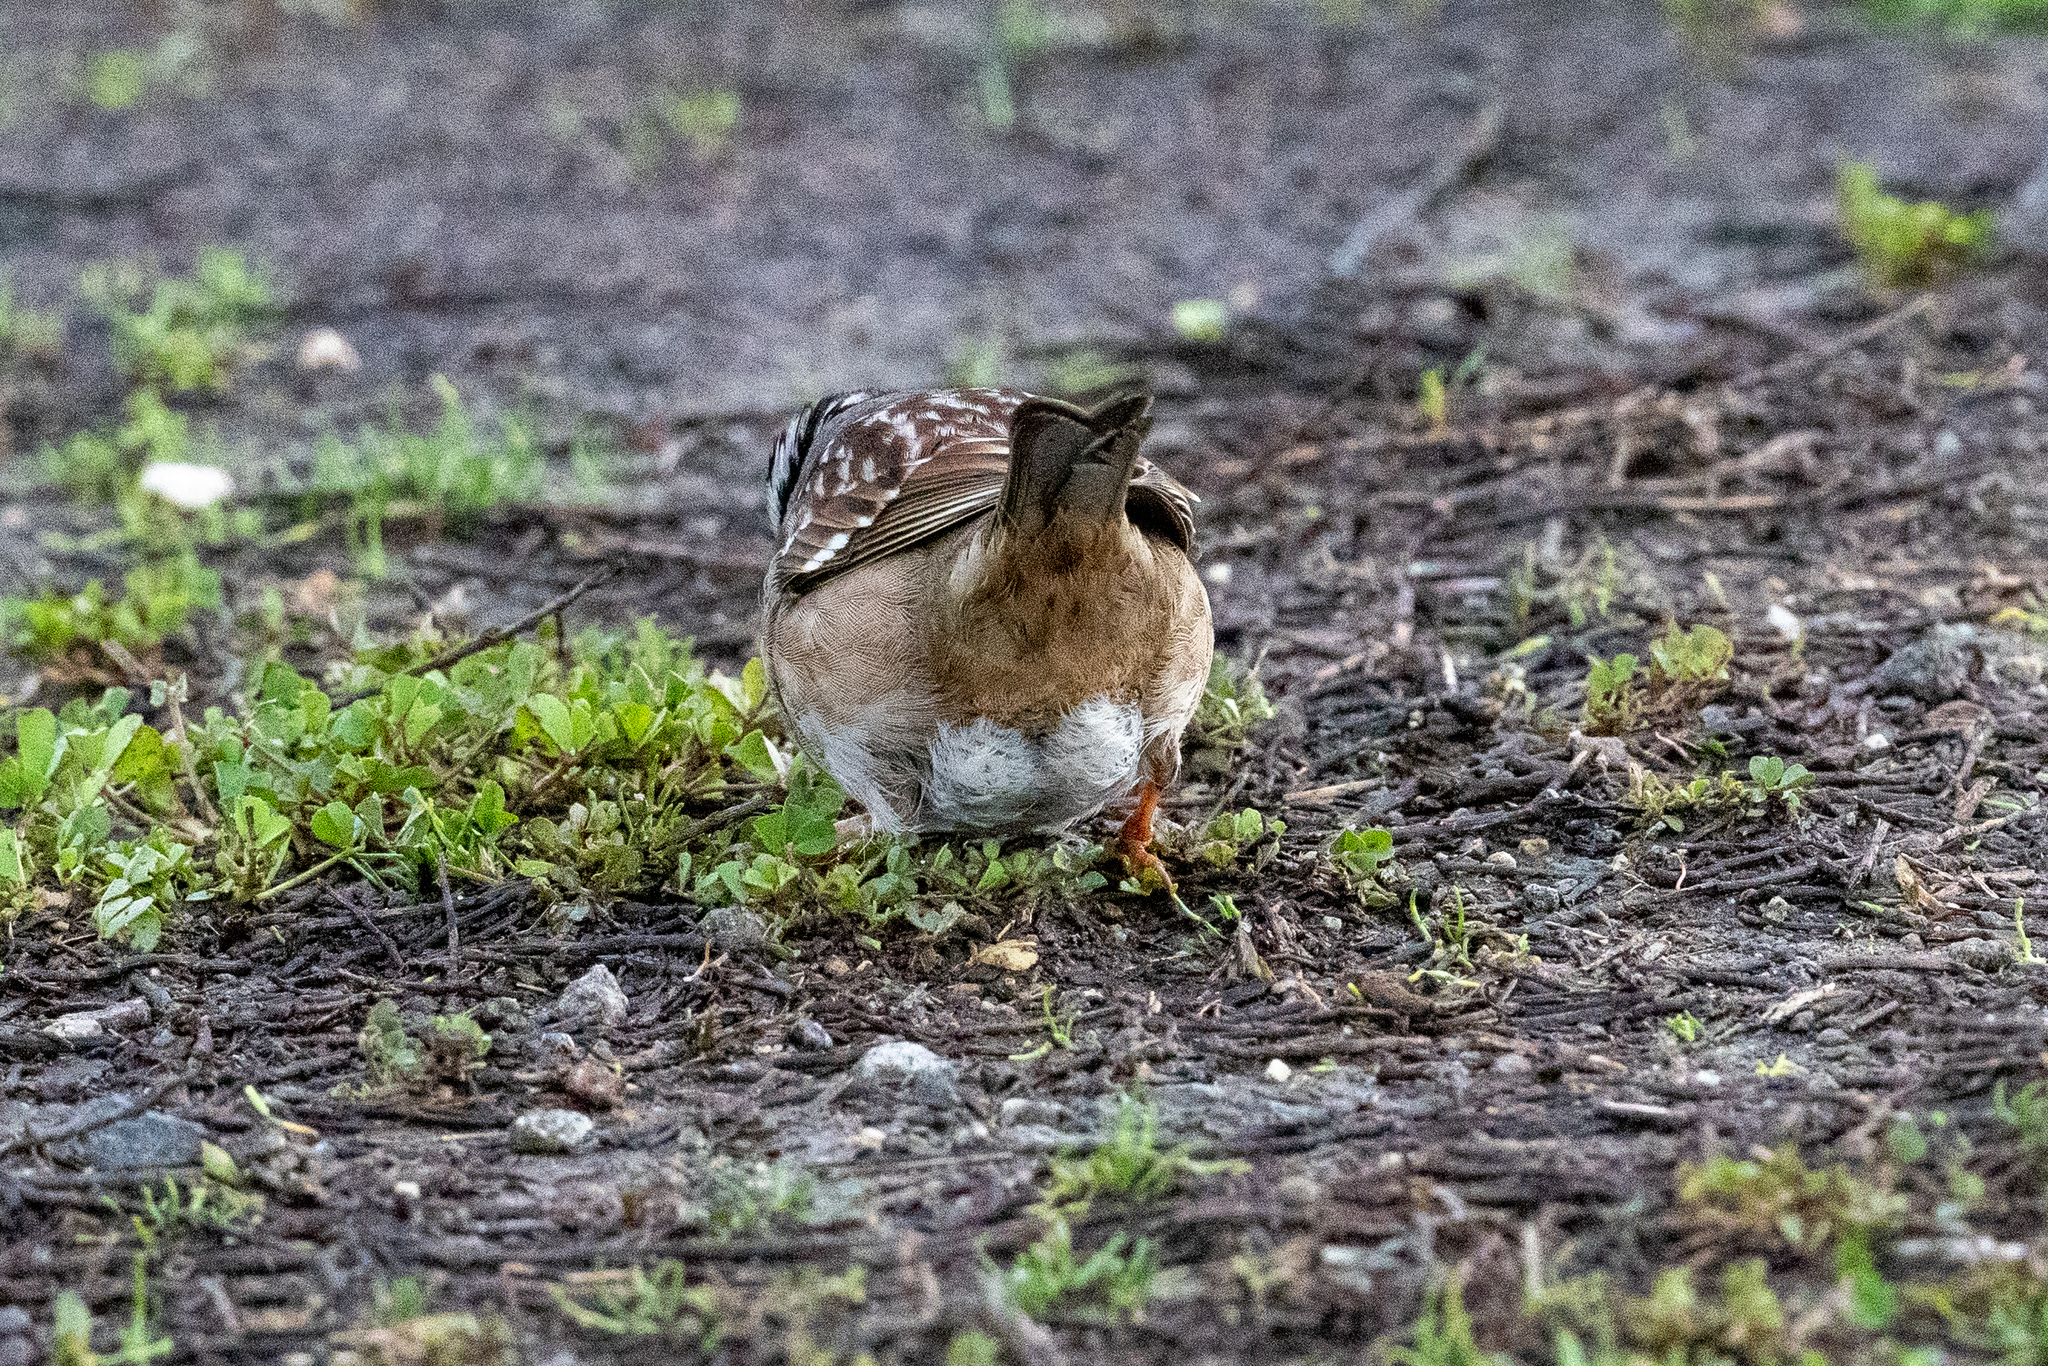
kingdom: Animalia
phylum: Chordata
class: Aves
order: Passeriformes
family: Passerellidae
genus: Zonotrichia
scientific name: Zonotrichia leucophrys
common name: White-crowned sparrow
